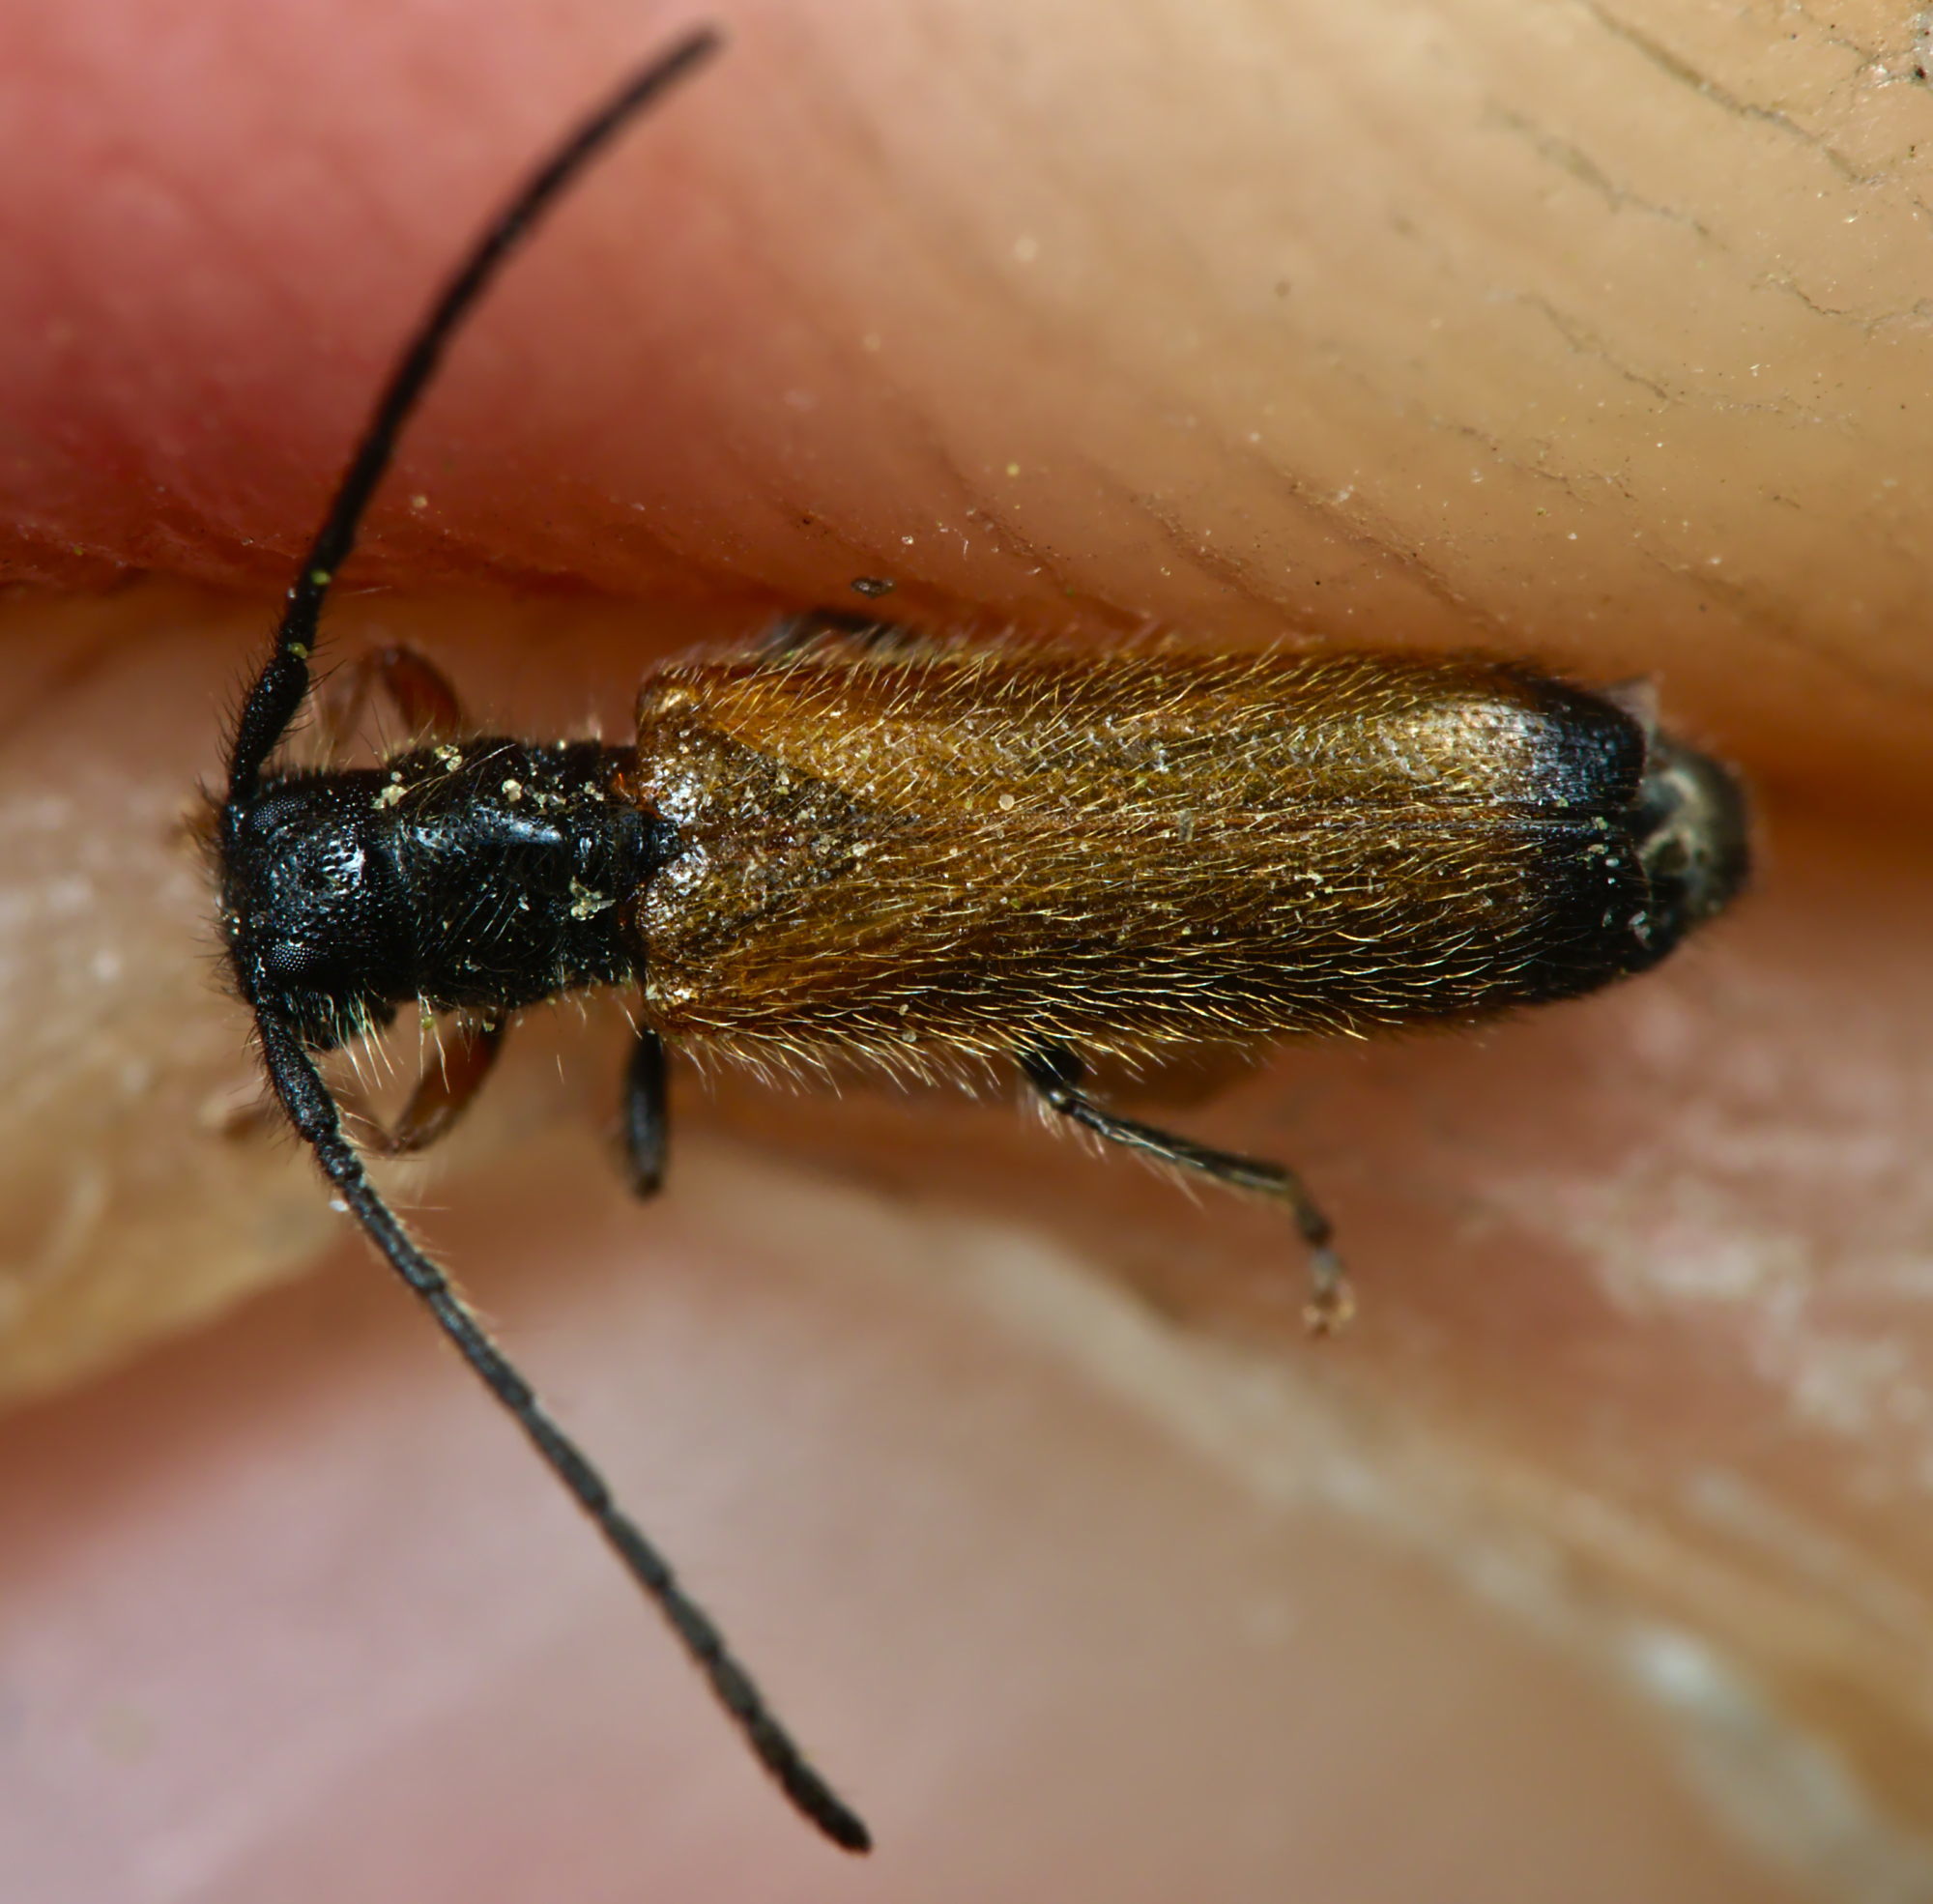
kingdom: Animalia
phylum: Arthropoda
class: Insecta
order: Coleoptera
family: Cerambycidae
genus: Tetrops
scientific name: Tetrops praeustus
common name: Plum beetle
